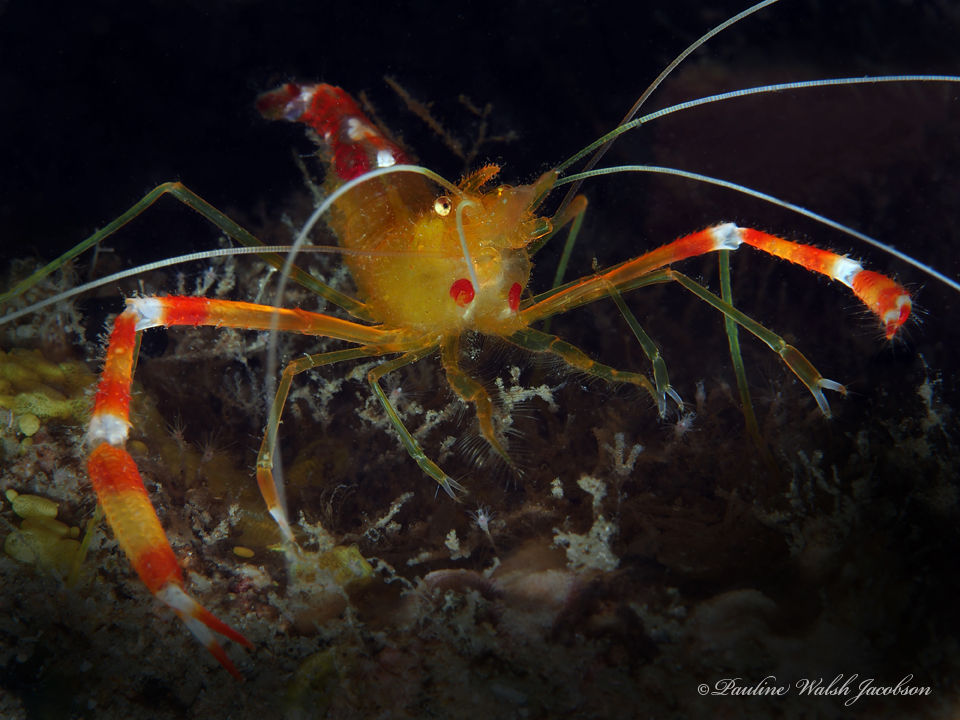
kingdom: Animalia
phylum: Arthropoda
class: Malacostraca
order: Decapoda
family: Stenopodidae
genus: Stenopus
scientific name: Stenopus scutellatus
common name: Golden coral shrimp
